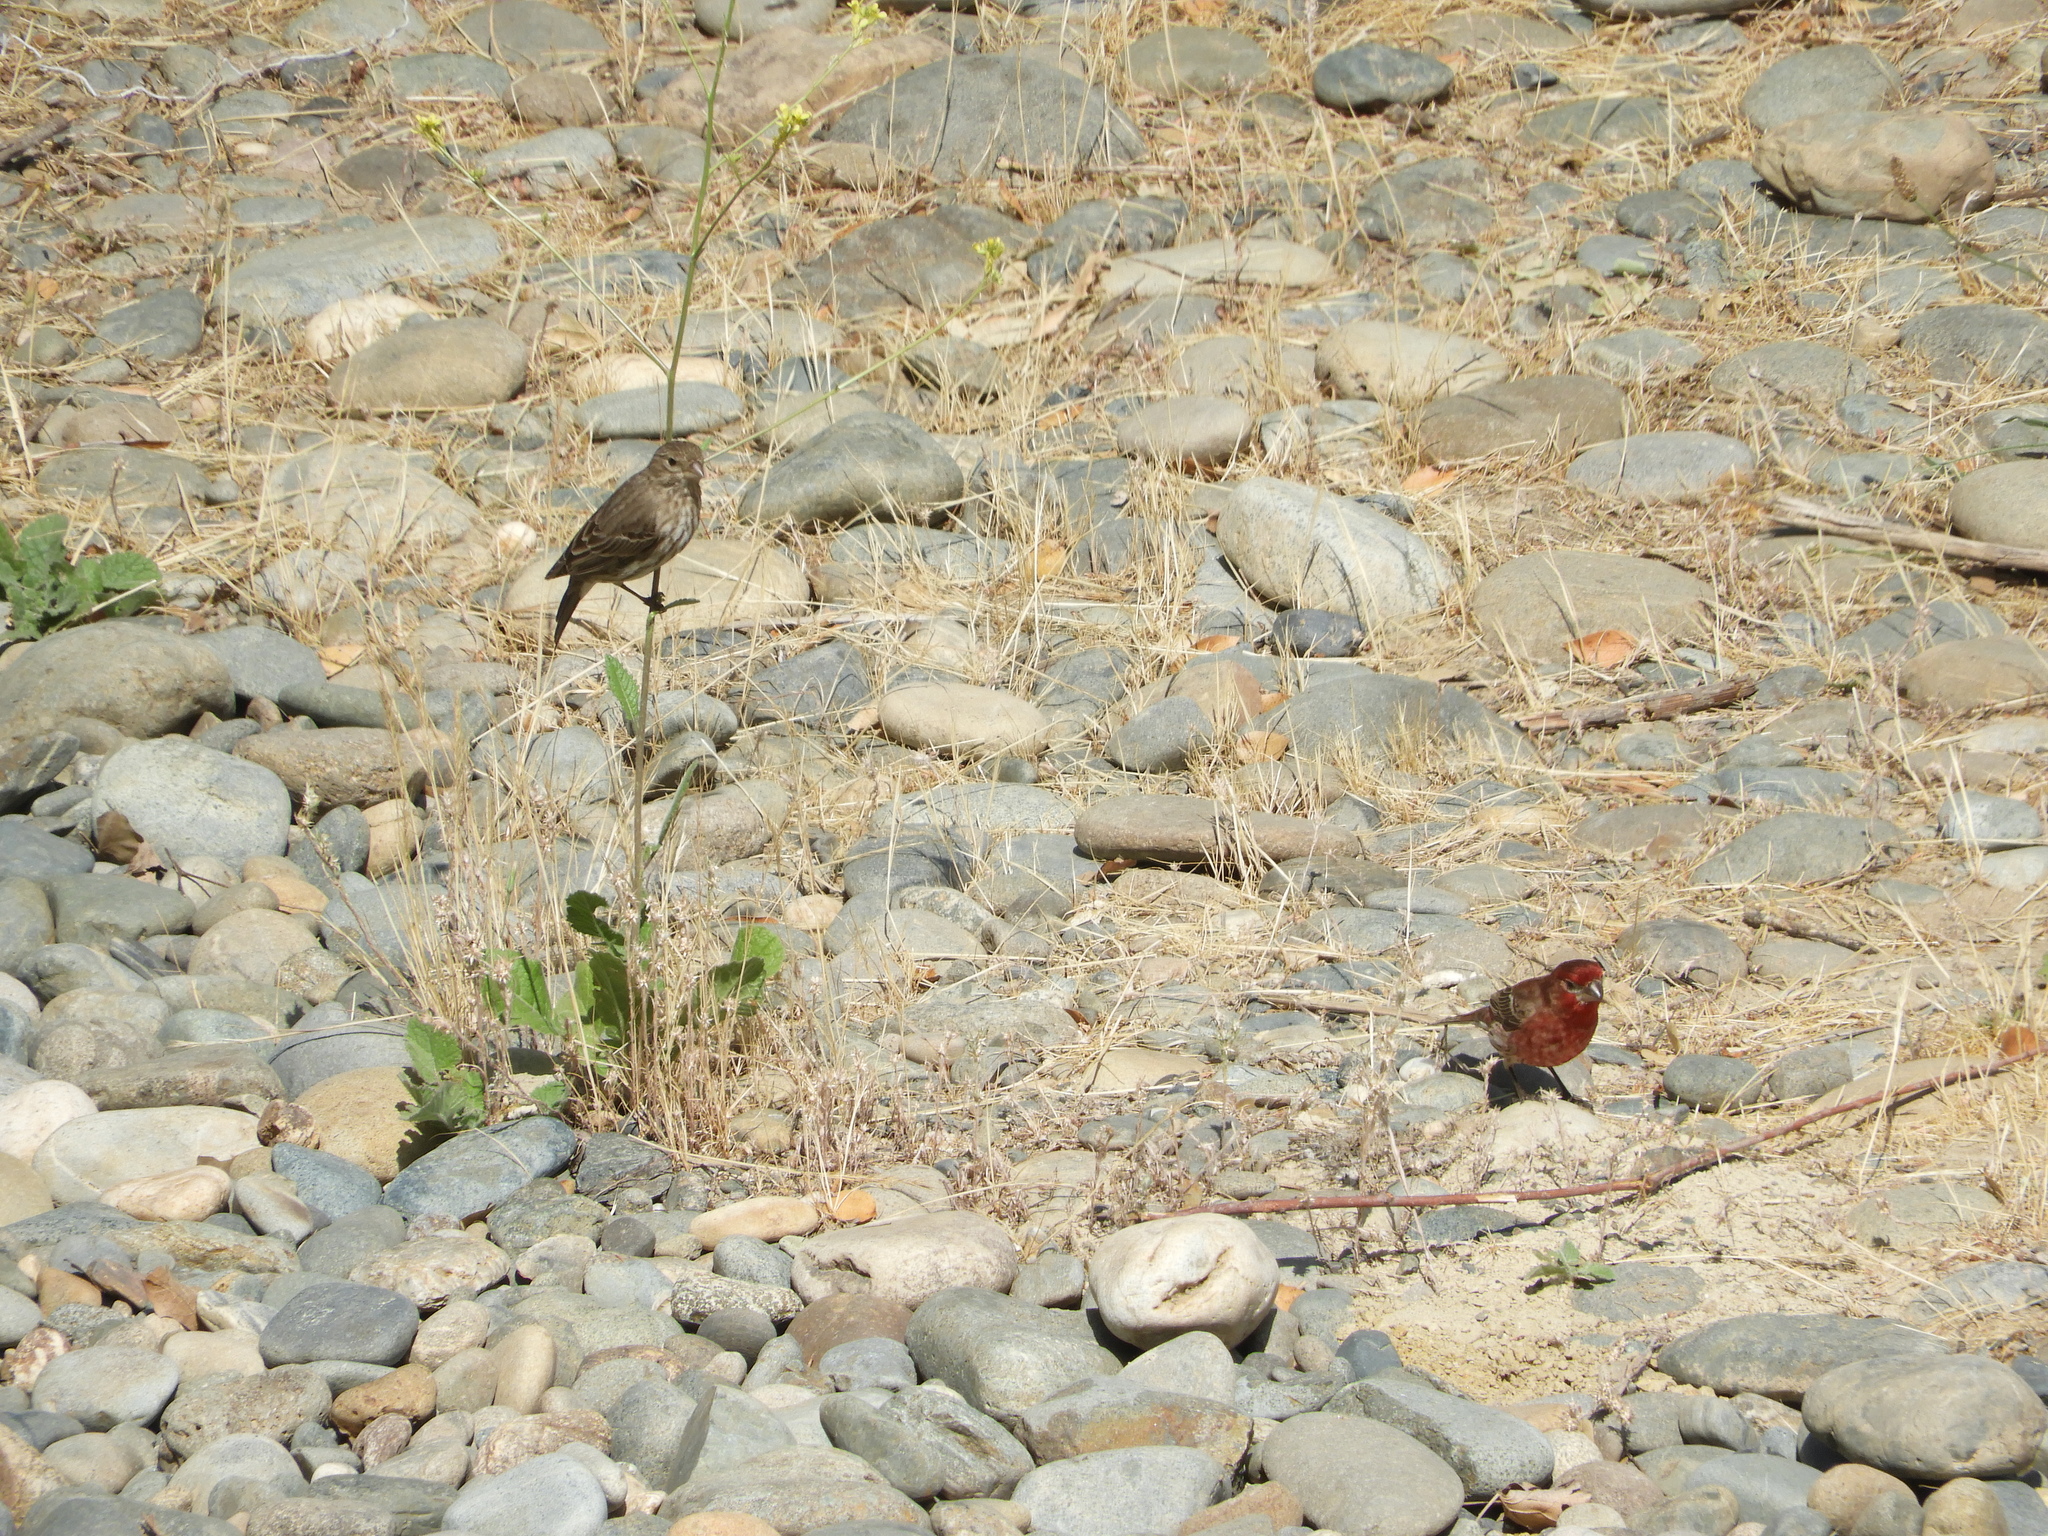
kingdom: Animalia
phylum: Chordata
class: Aves
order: Passeriformes
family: Fringillidae
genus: Haemorhous
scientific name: Haemorhous mexicanus
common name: House finch
